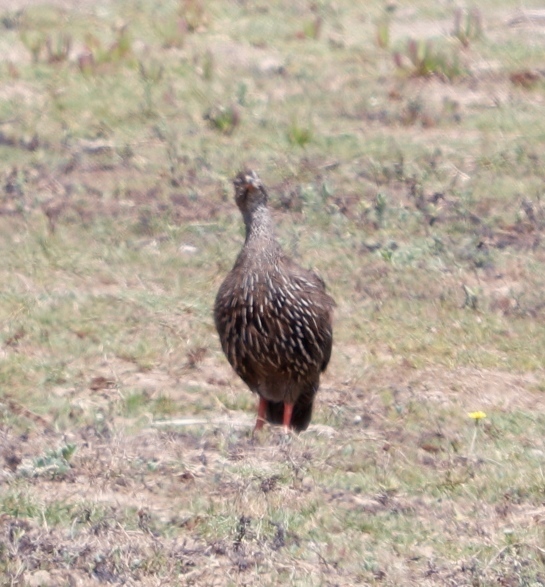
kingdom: Animalia
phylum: Chordata
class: Aves
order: Galliformes
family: Phasianidae
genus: Pternistis
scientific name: Pternistis capensis
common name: Cape spurfowl
